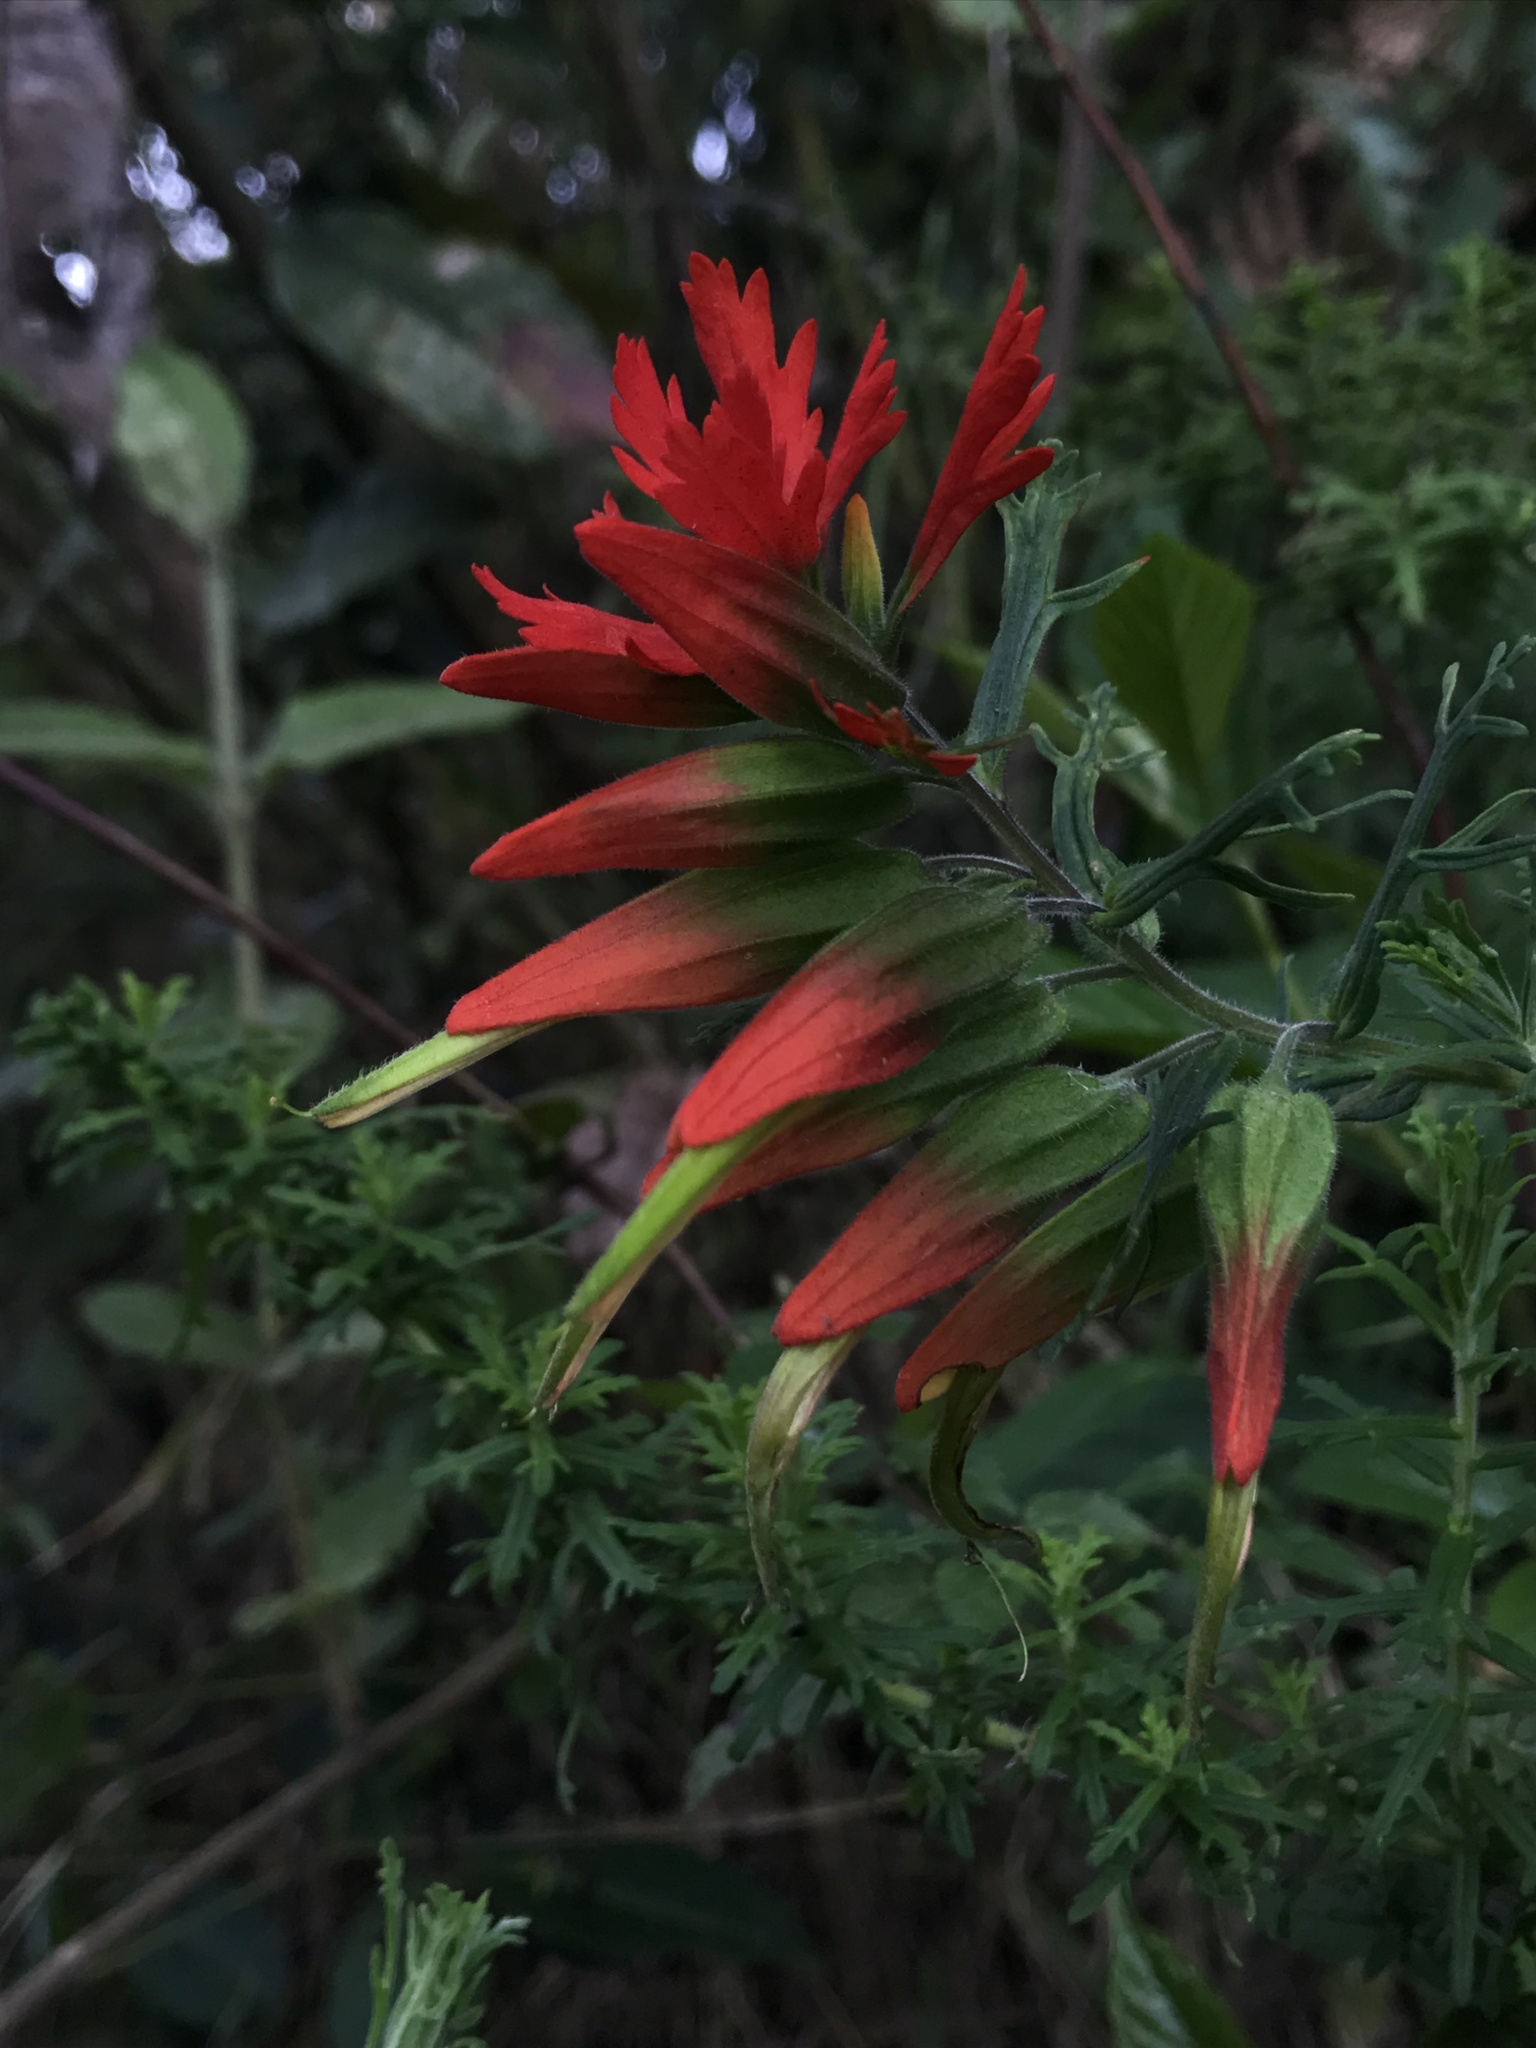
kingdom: Plantae
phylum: Tracheophyta
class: Magnoliopsida
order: Lamiales
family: Orobanchaceae
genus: Castilleja
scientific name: Castilleja fissifolia
